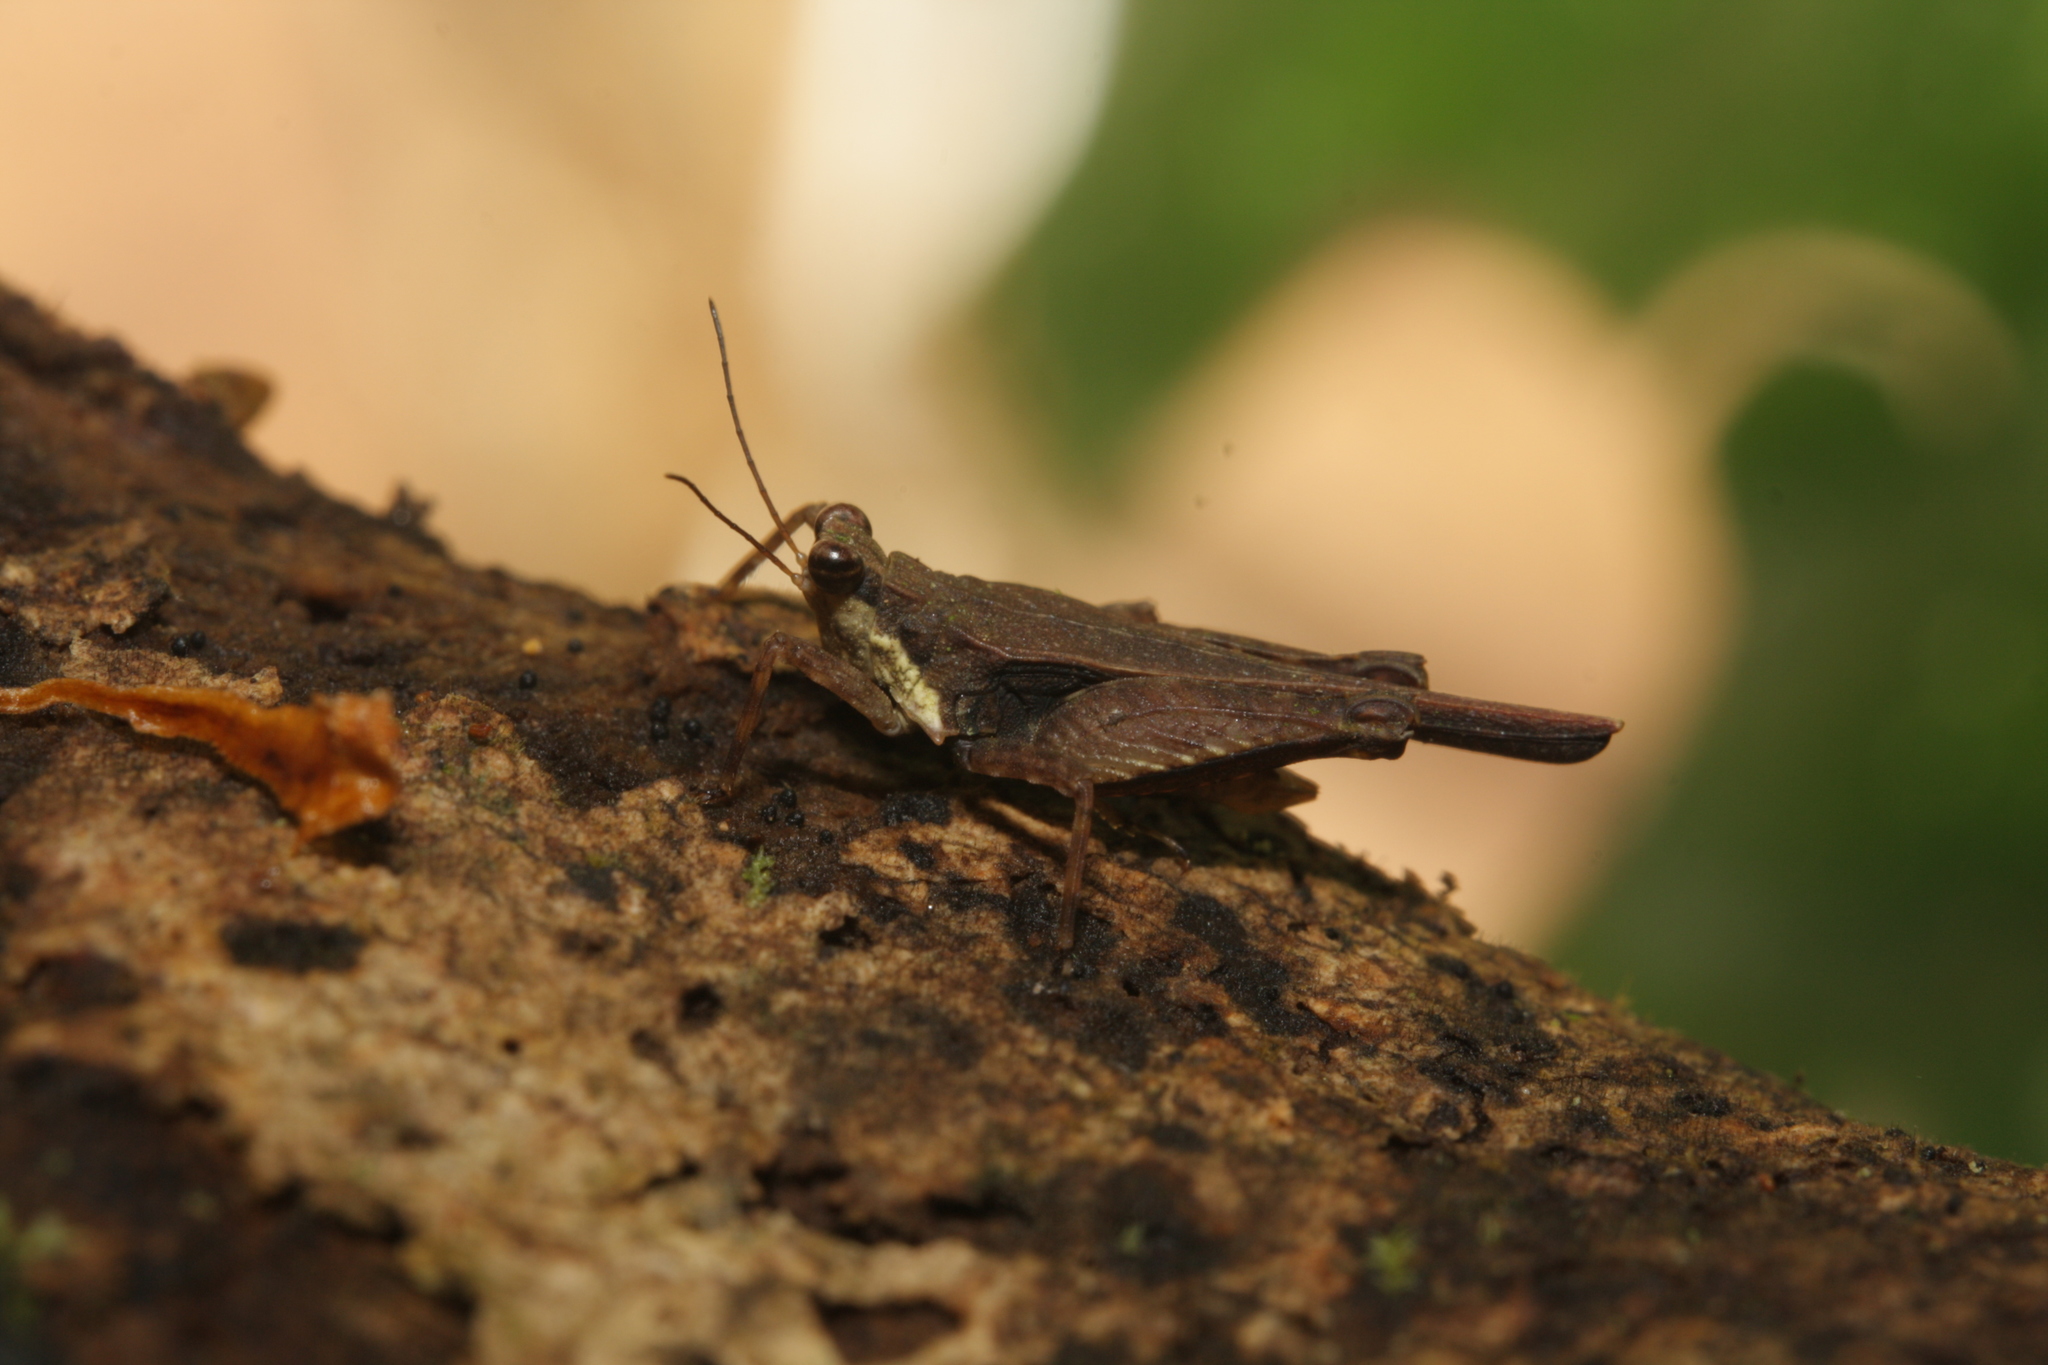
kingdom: Animalia
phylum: Arthropoda
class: Insecta
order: Orthoptera
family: Tetrigidae
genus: Otumba
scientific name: Otumba dentata
